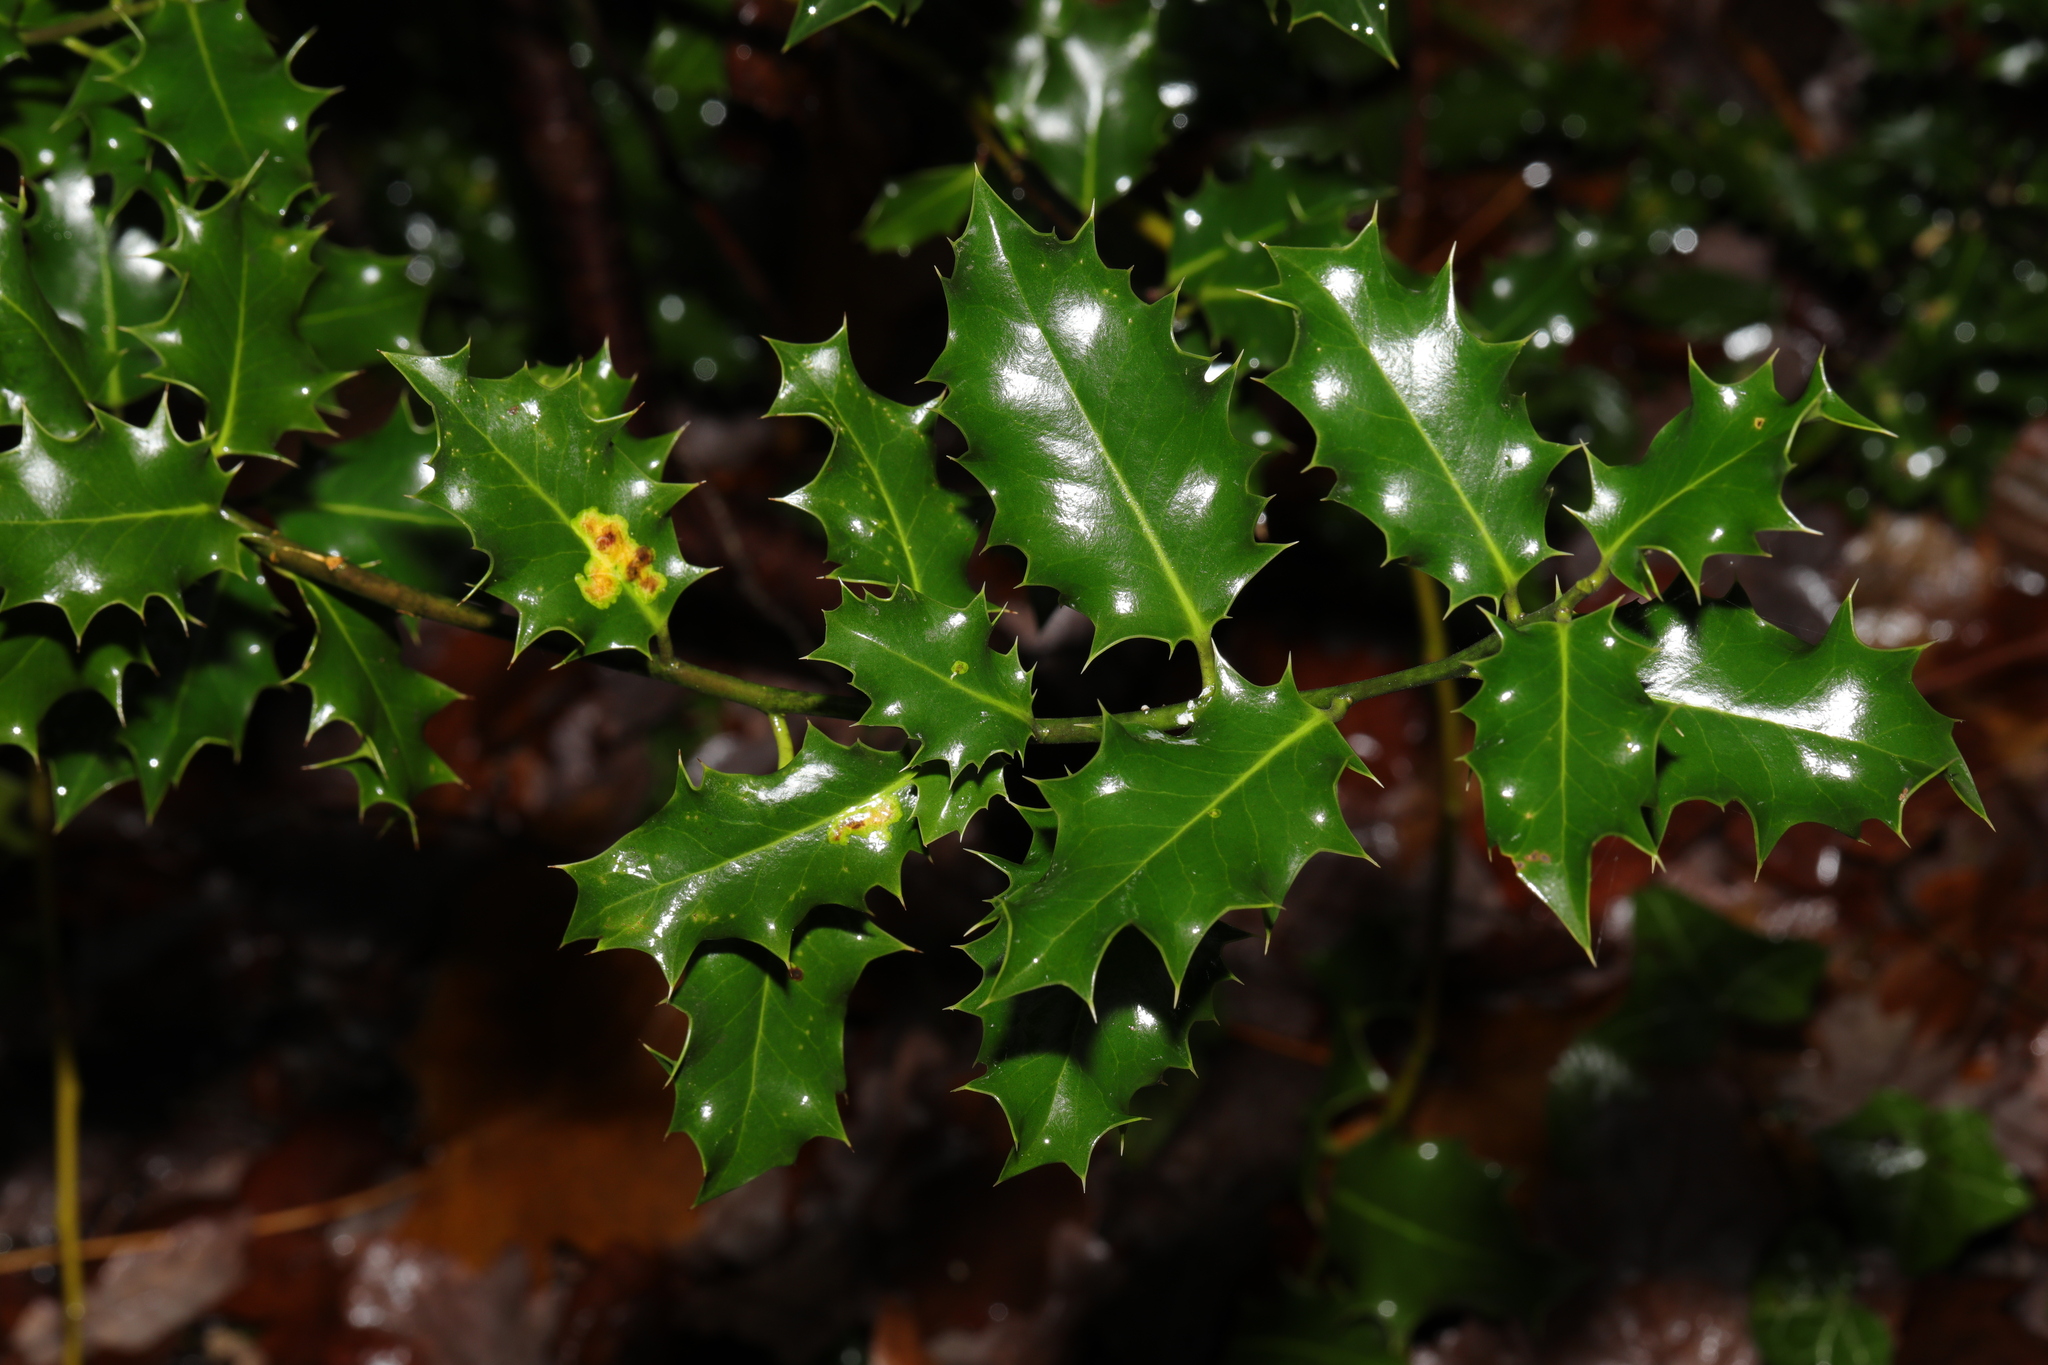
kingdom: Plantae
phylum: Tracheophyta
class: Magnoliopsida
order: Aquifoliales
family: Aquifoliaceae
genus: Ilex
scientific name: Ilex aquifolium
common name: English holly
